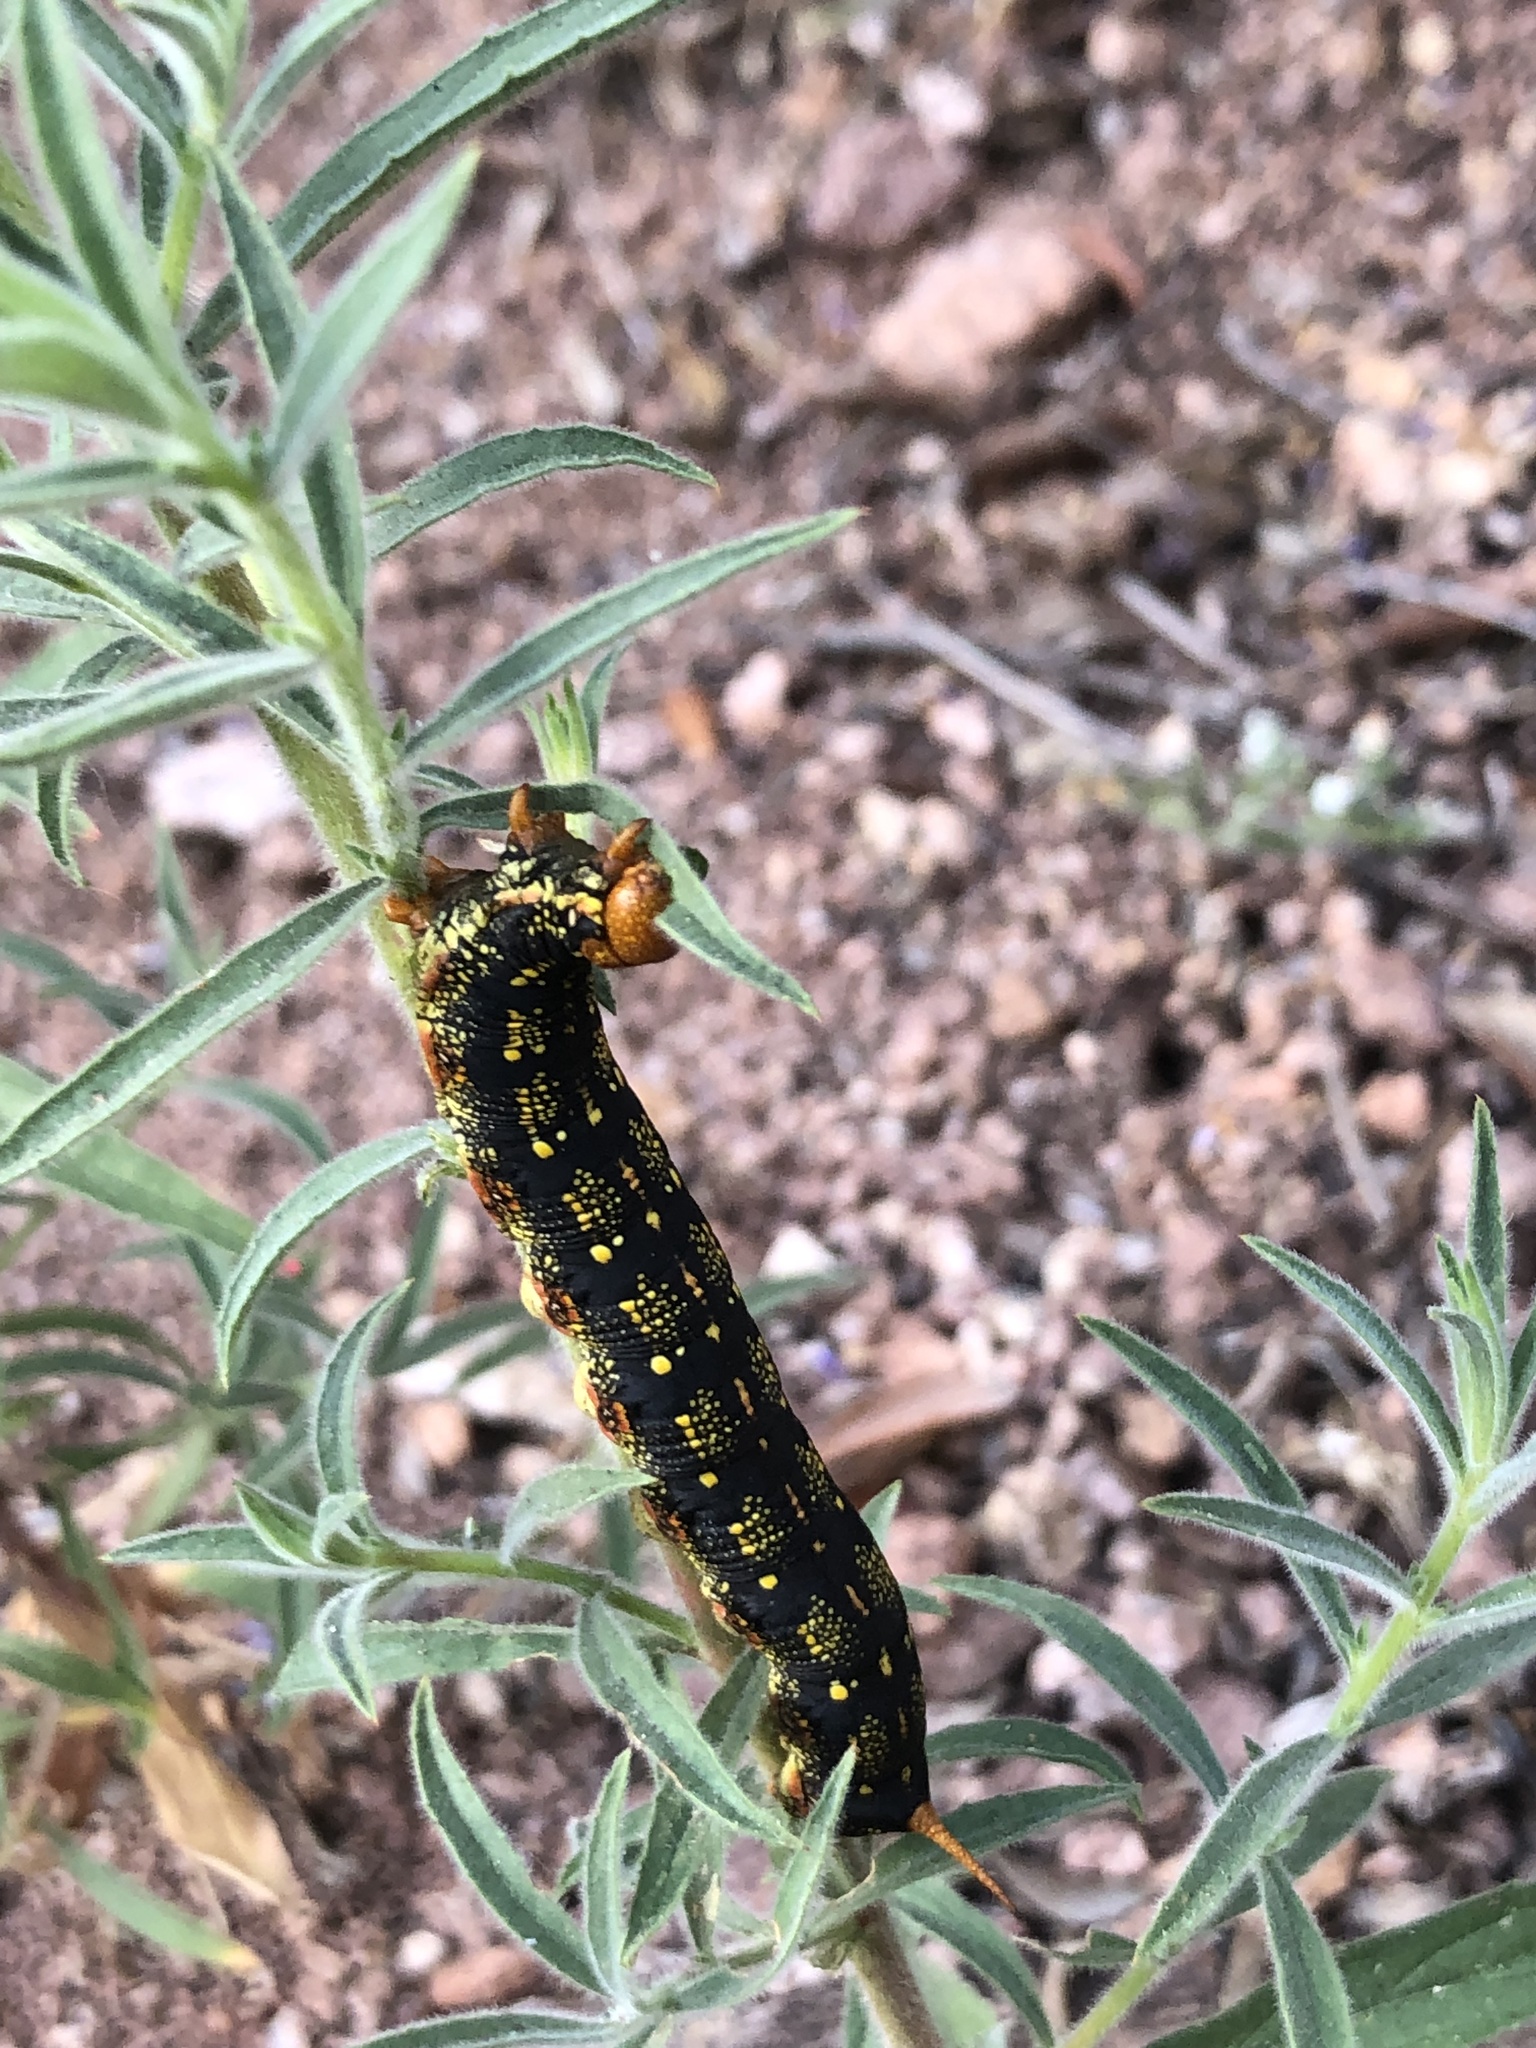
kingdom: Animalia
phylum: Arthropoda
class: Insecta
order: Lepidoptera
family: Sphingidae
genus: Hyles
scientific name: Hyles lineata
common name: White-lined sphinx
